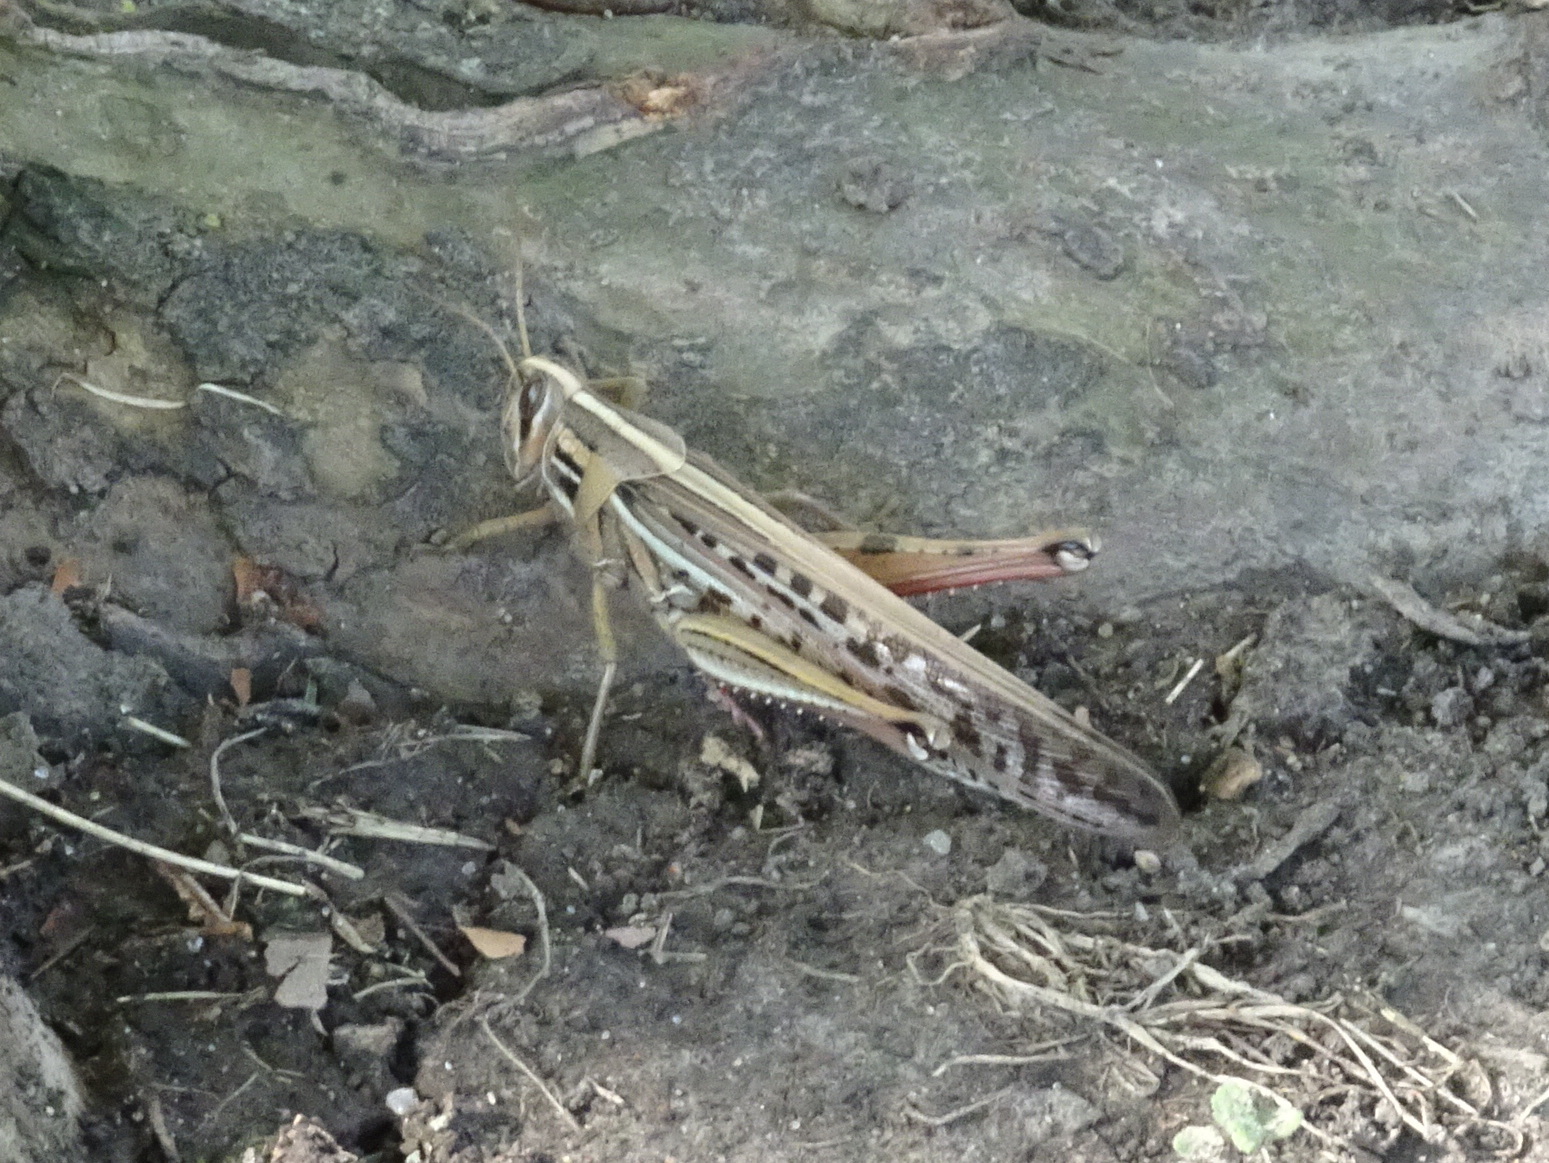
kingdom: Animalia
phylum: Arthropoda
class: Insecta
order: Orthoptera
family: Acrididae
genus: Schistocerca
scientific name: Schistocerca americana
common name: American bird locust
